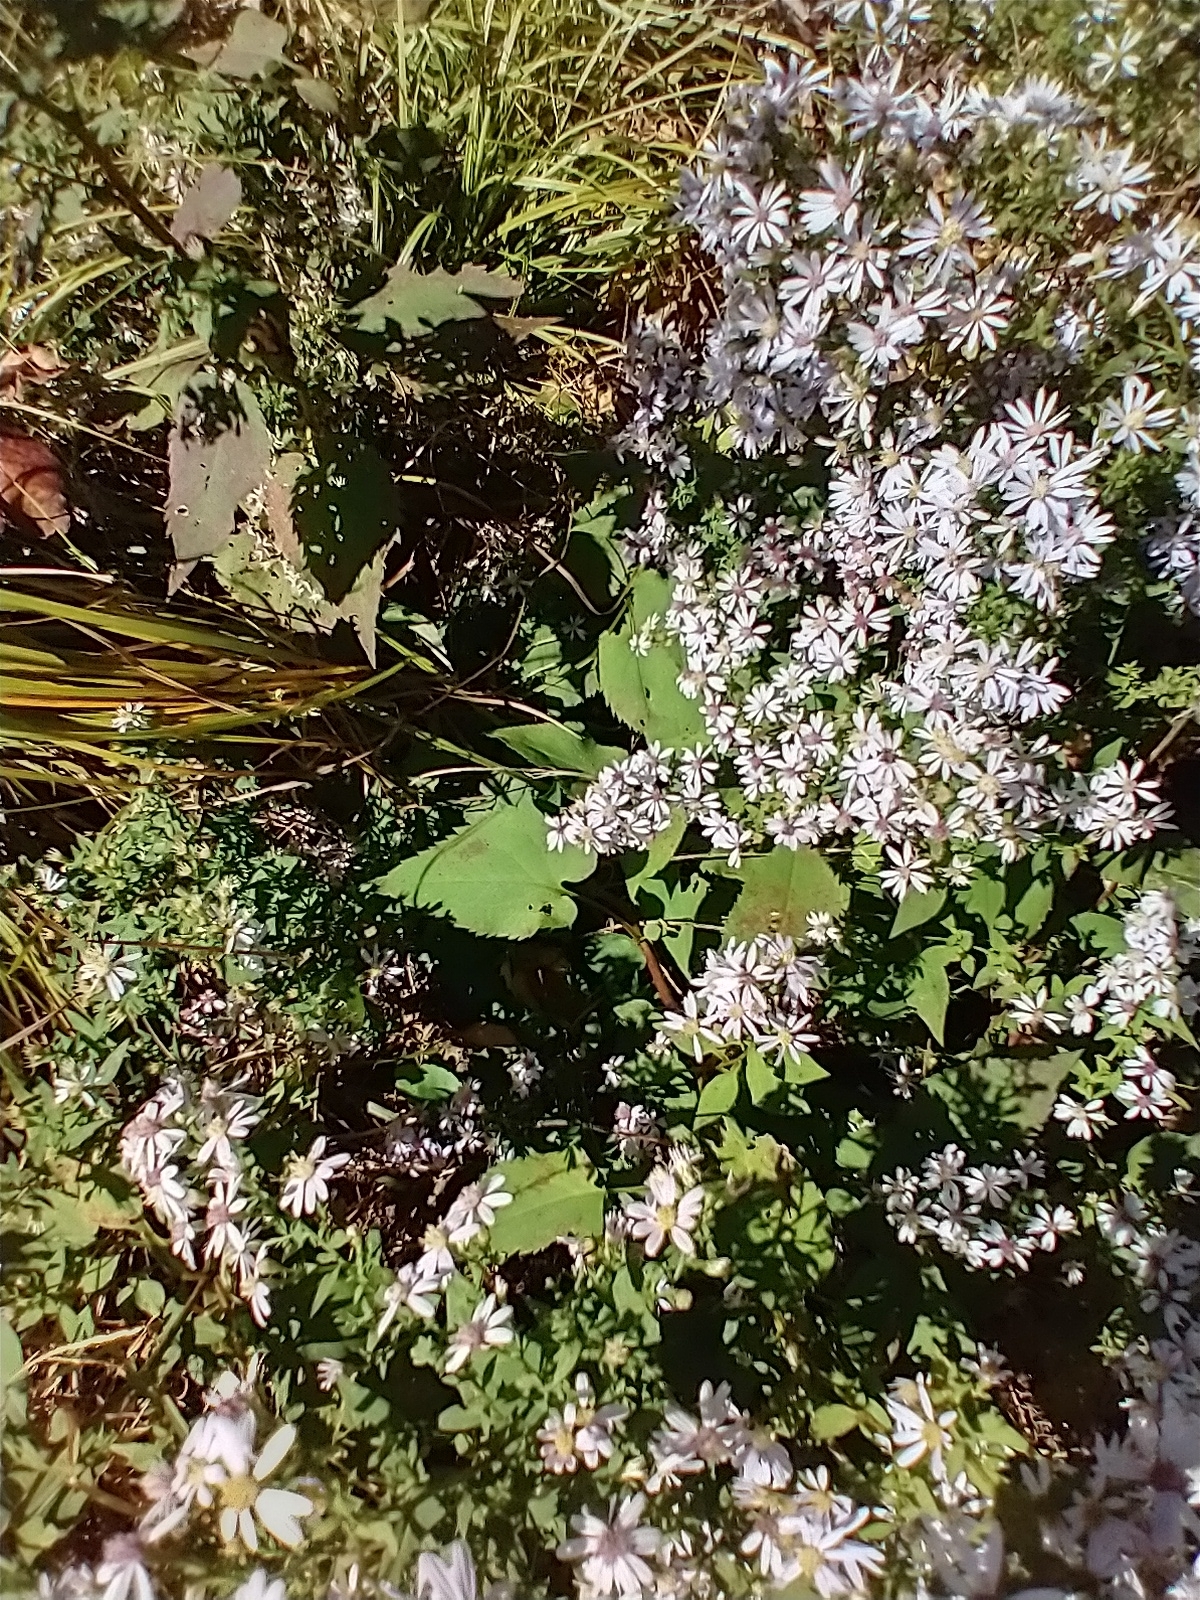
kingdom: Plantae
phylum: Tracheophyta
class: Magnoliopsida
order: Asterales
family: Asteraceae
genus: Symphyotrichum
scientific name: Symphyotrichum cordifolium
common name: Beeweed
